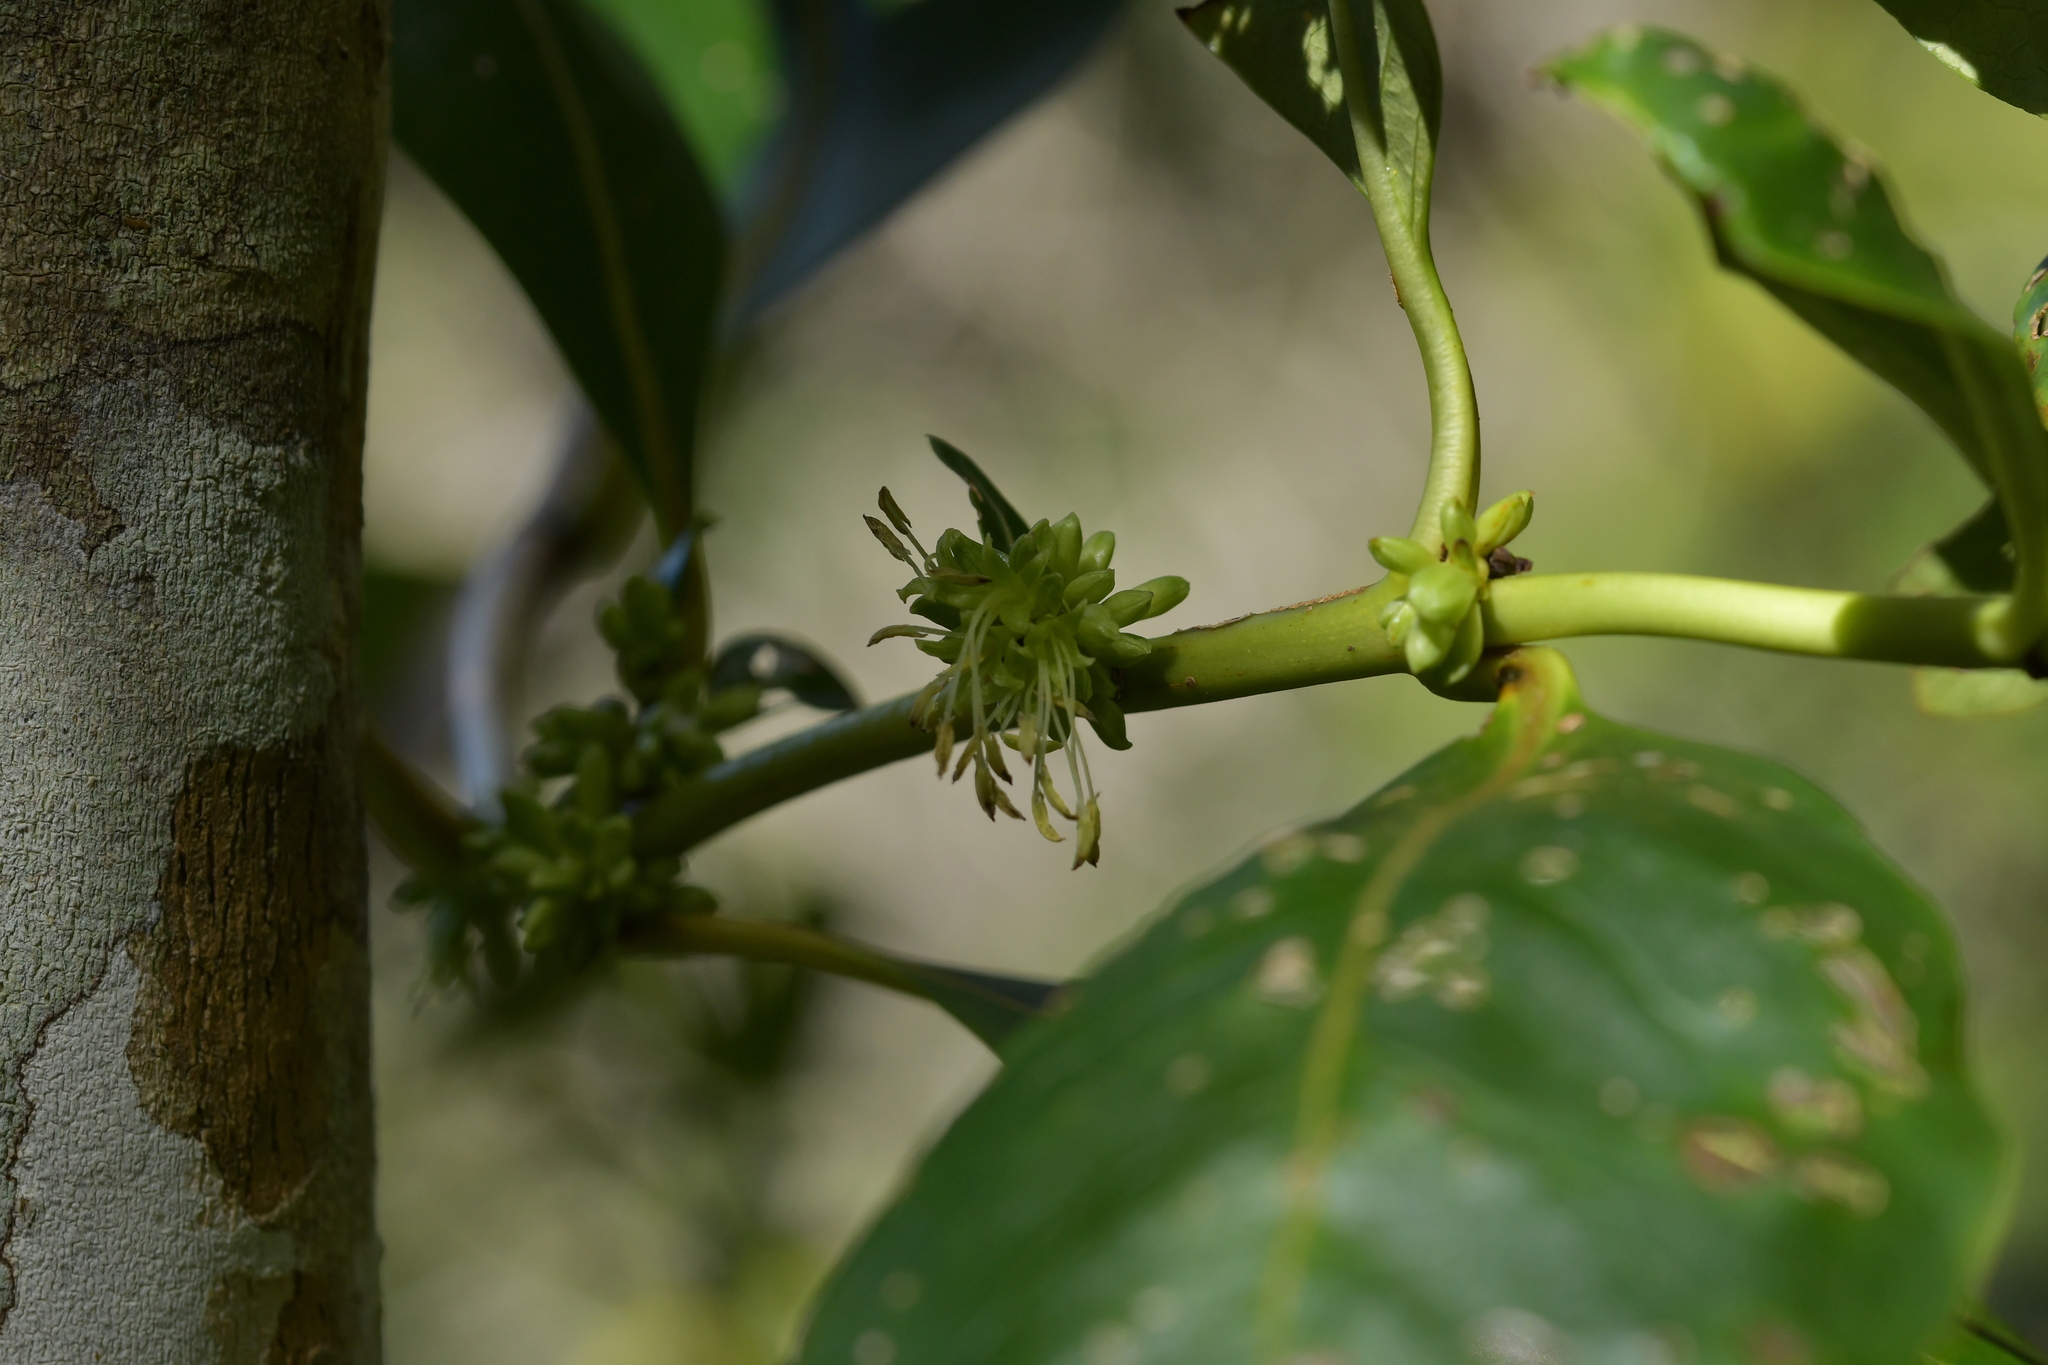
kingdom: Plantae
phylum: Tracheophyta
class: Magnoliopsida
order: Gentianales
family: Rubiaceae
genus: Coprosma
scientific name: Coprosma robusta
